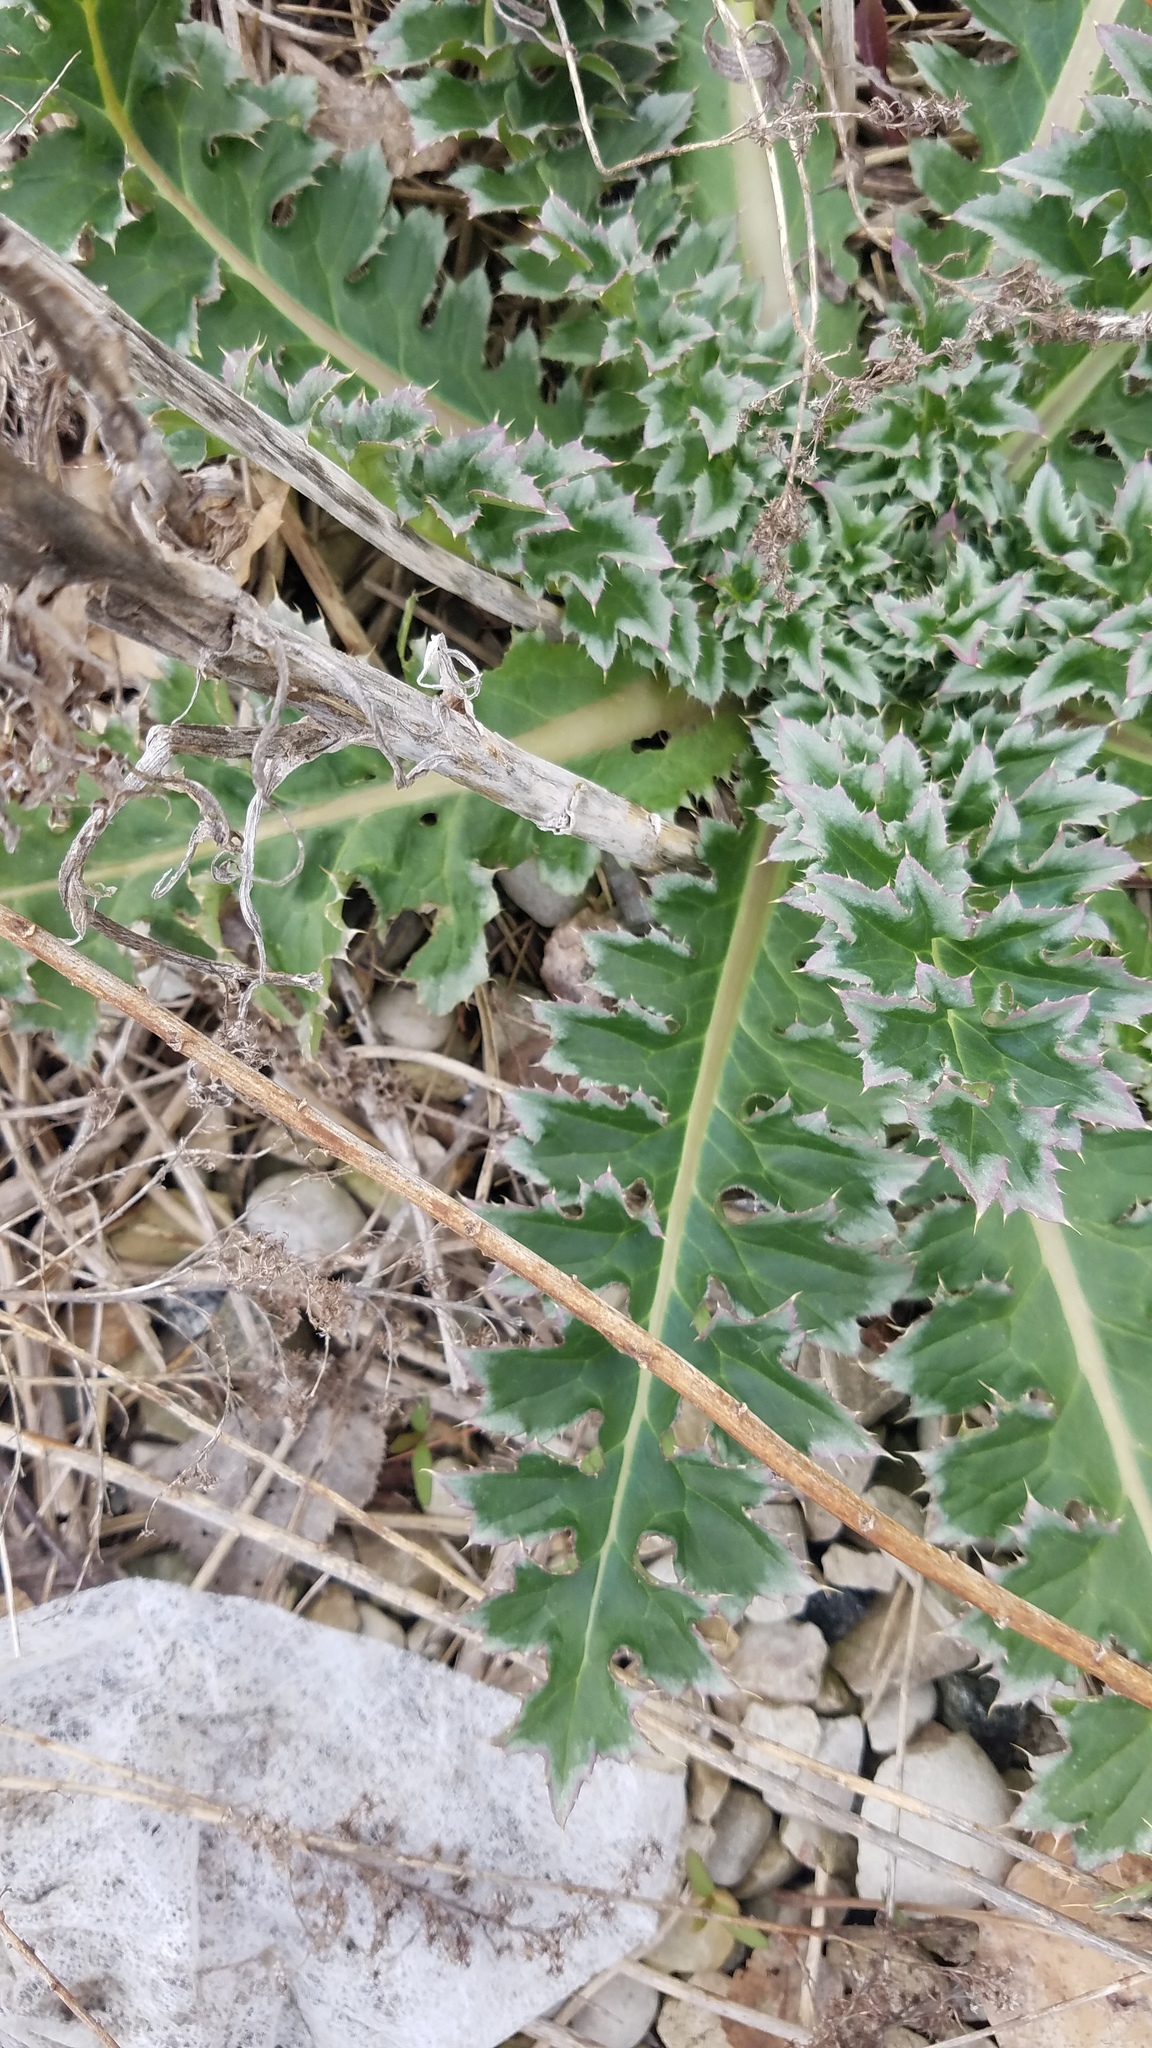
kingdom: Plantae
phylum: Tracheophyta
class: Magnoliopsida
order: Asterales
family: Asteraceae
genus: Carduus
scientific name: Carduus nutans
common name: Musk thistle
